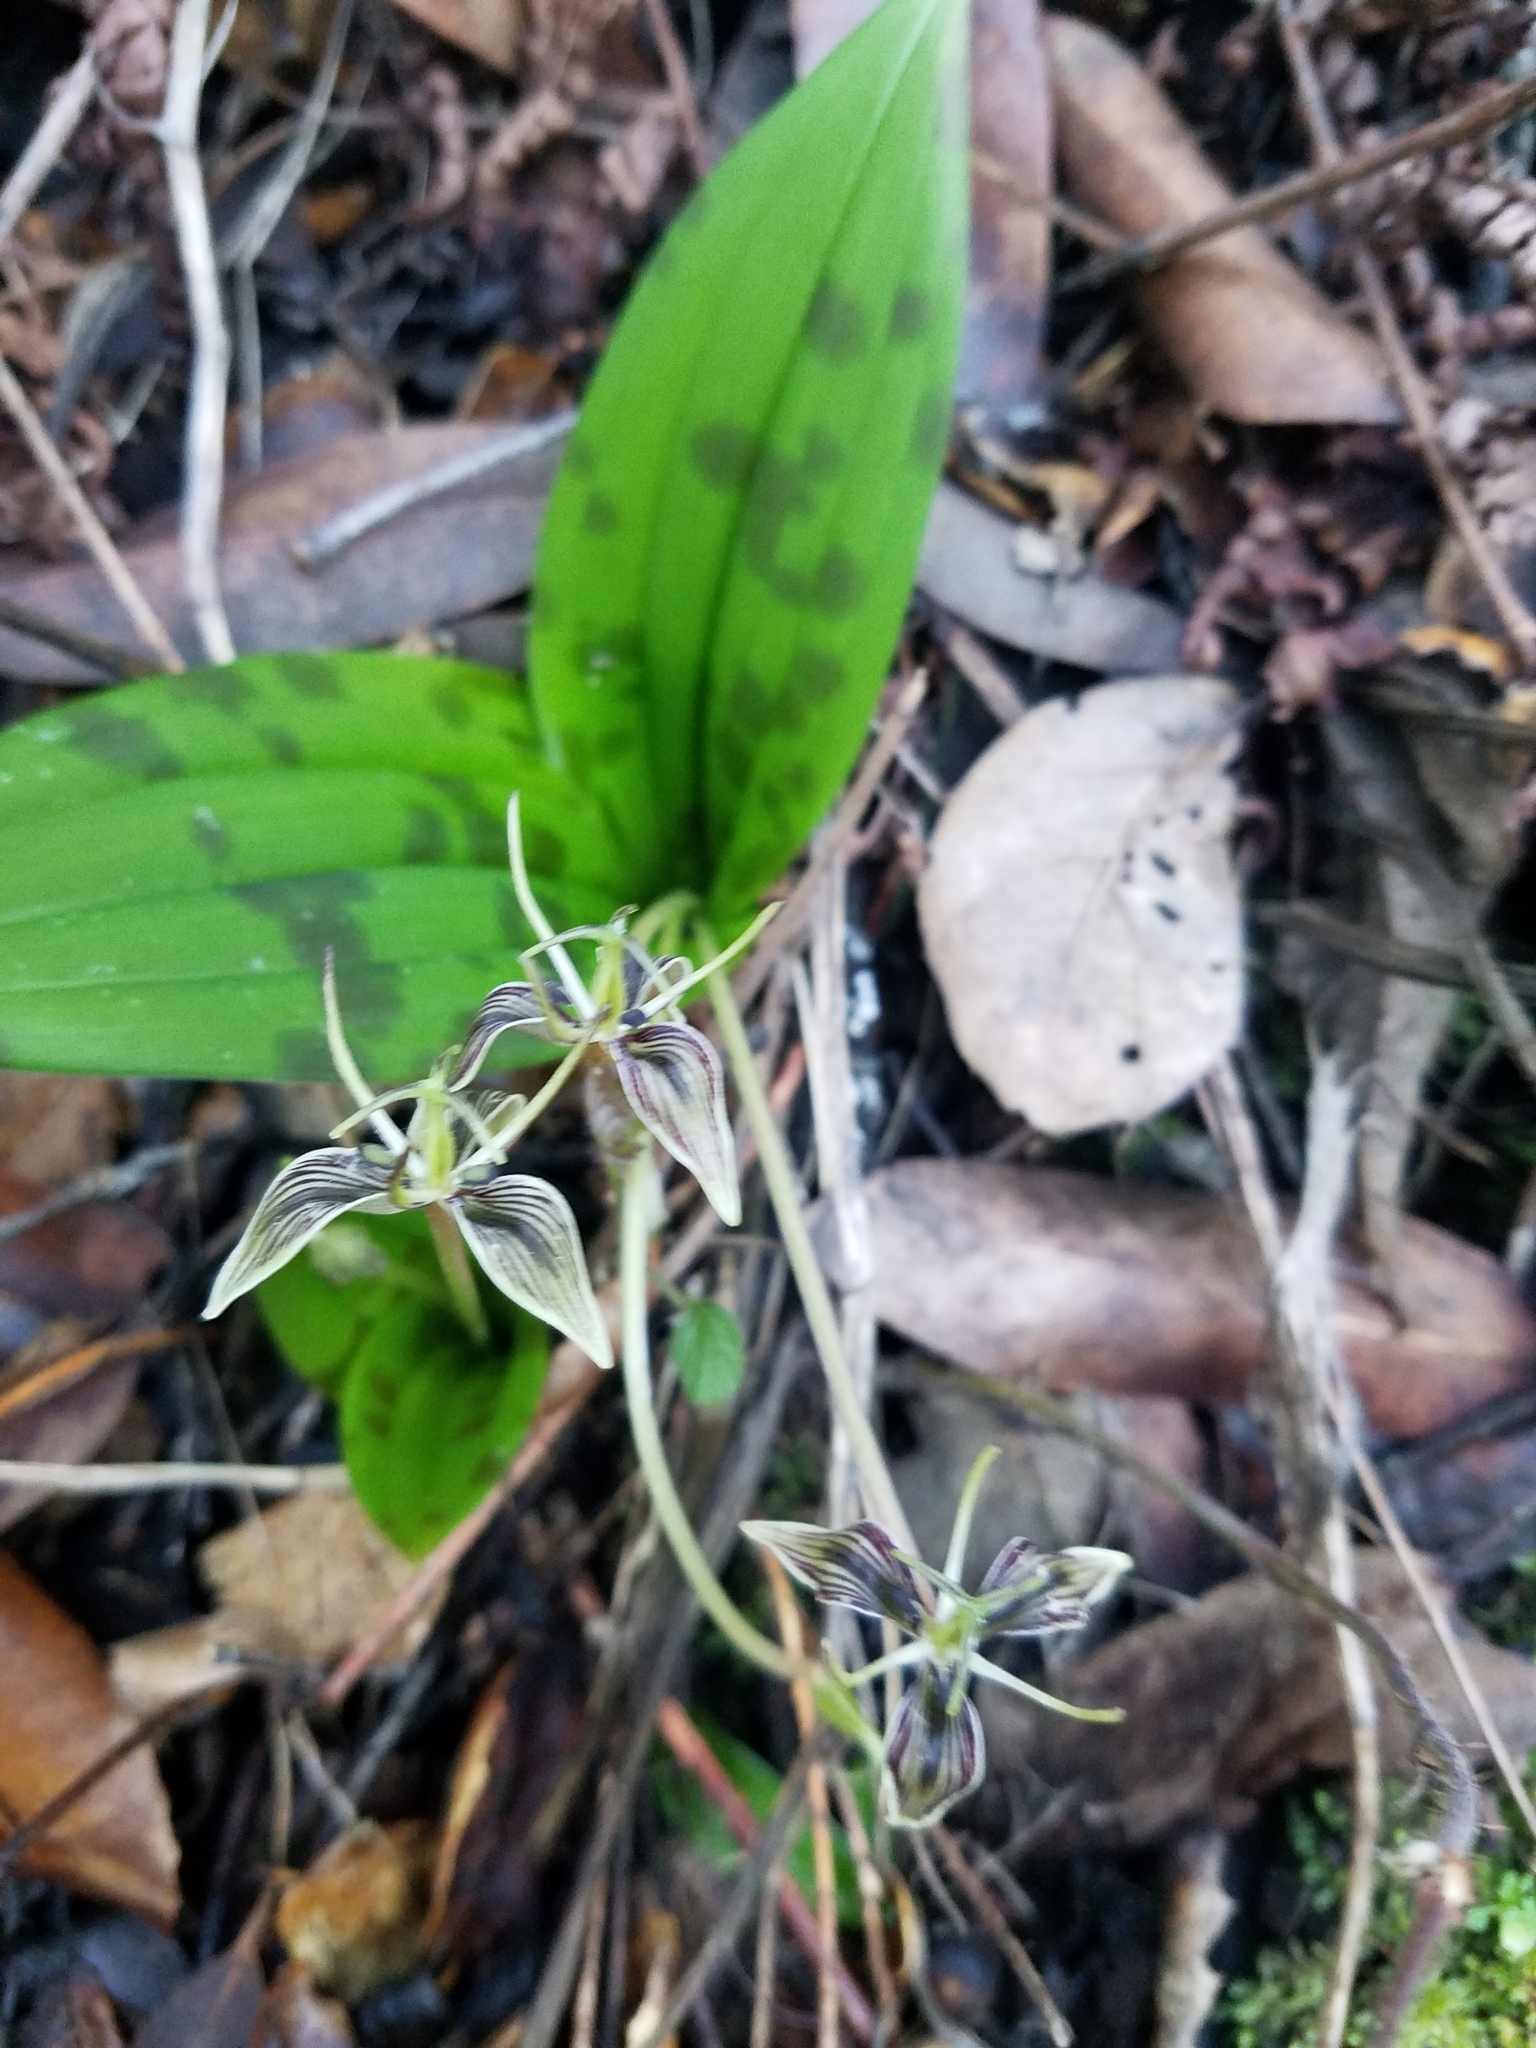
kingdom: Plantae
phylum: Tracheophyta
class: Liliopsida
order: Liliales
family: Liliaceae
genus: Scoliopus
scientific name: Scoliopus bigelovii
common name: Foetid adder's-tongue
